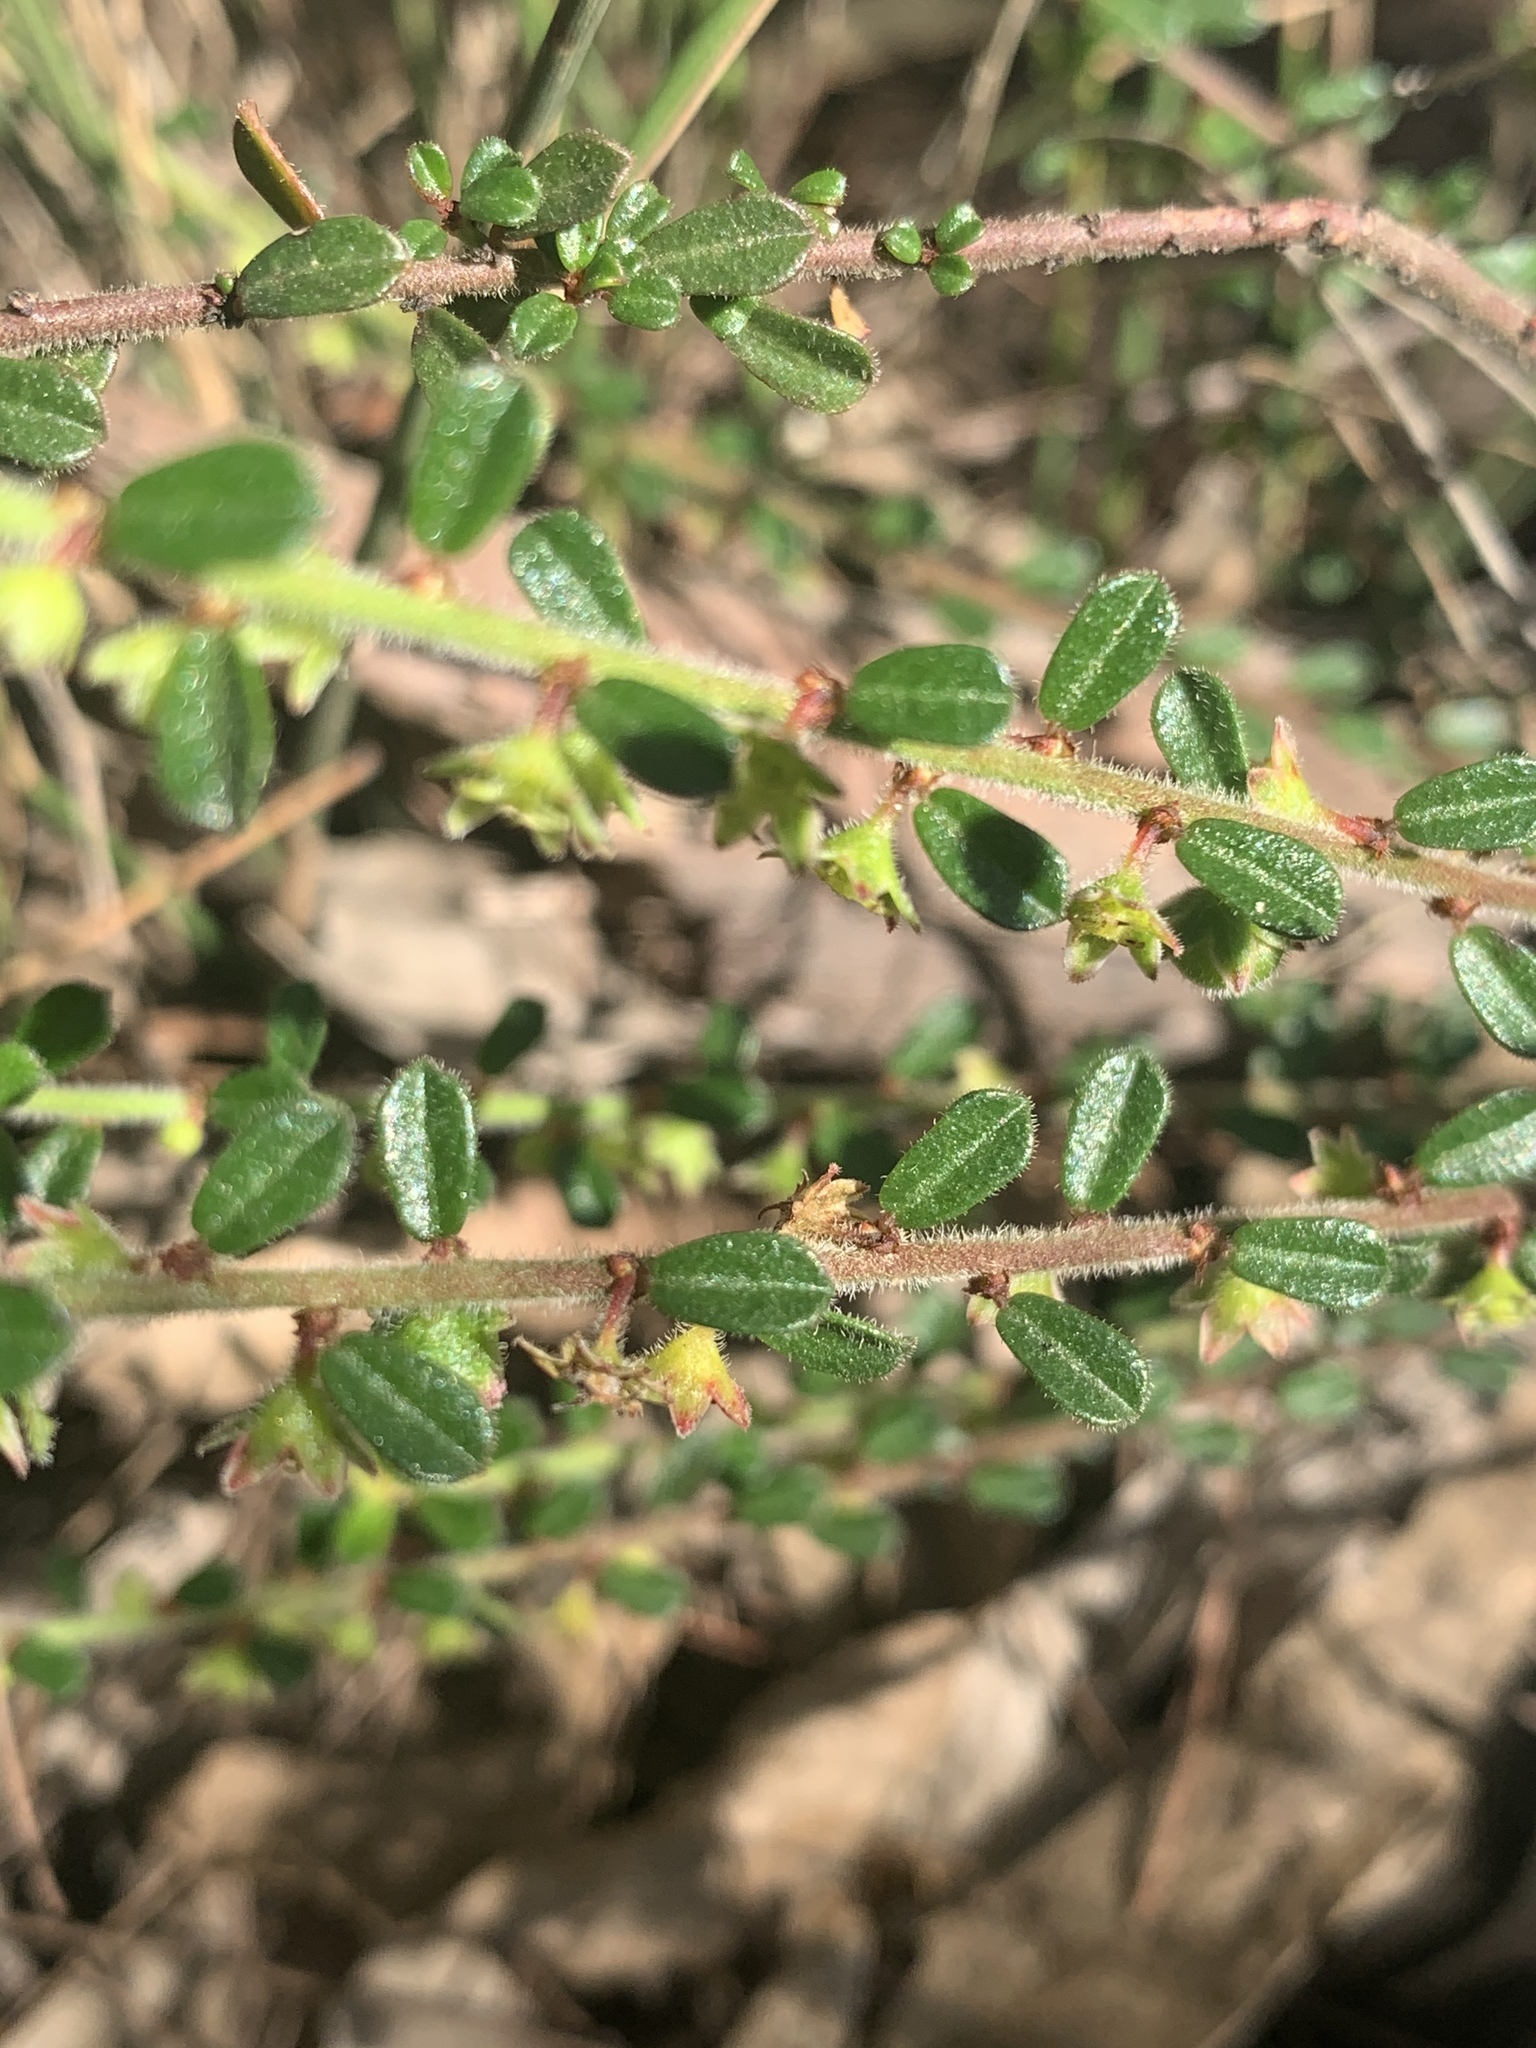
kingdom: Plantae
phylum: Tracheophyta
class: Magnoliopsida
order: Malpighiales
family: Phyllanthaceae
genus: Phyllanthus
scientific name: Phyllanthus hirtellus
